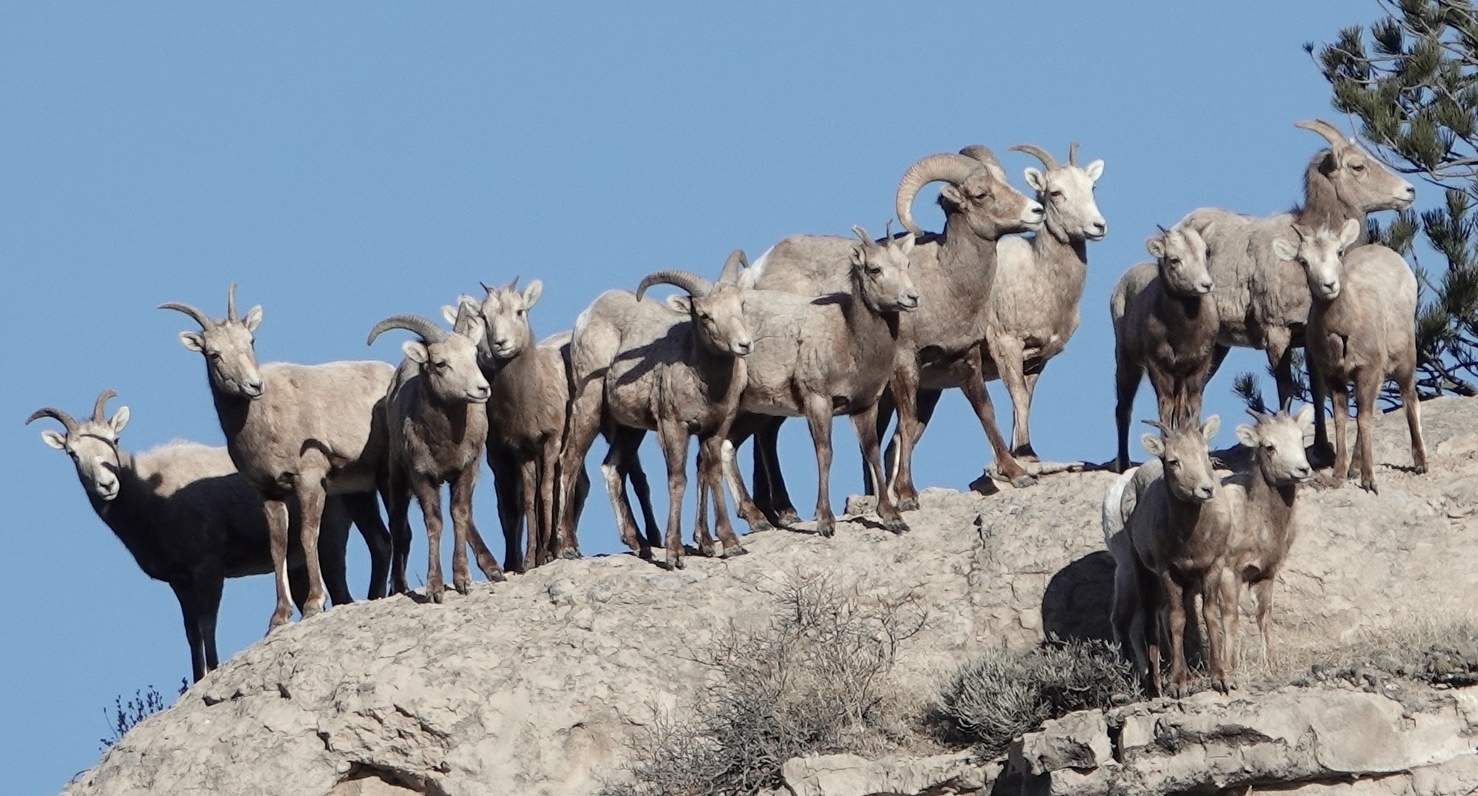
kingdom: Animalia
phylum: Chordata
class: Mammalia
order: Artiodactyla
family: Bovidae
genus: Ovis
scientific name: Ovis canadensis
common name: Bighorn sheep
